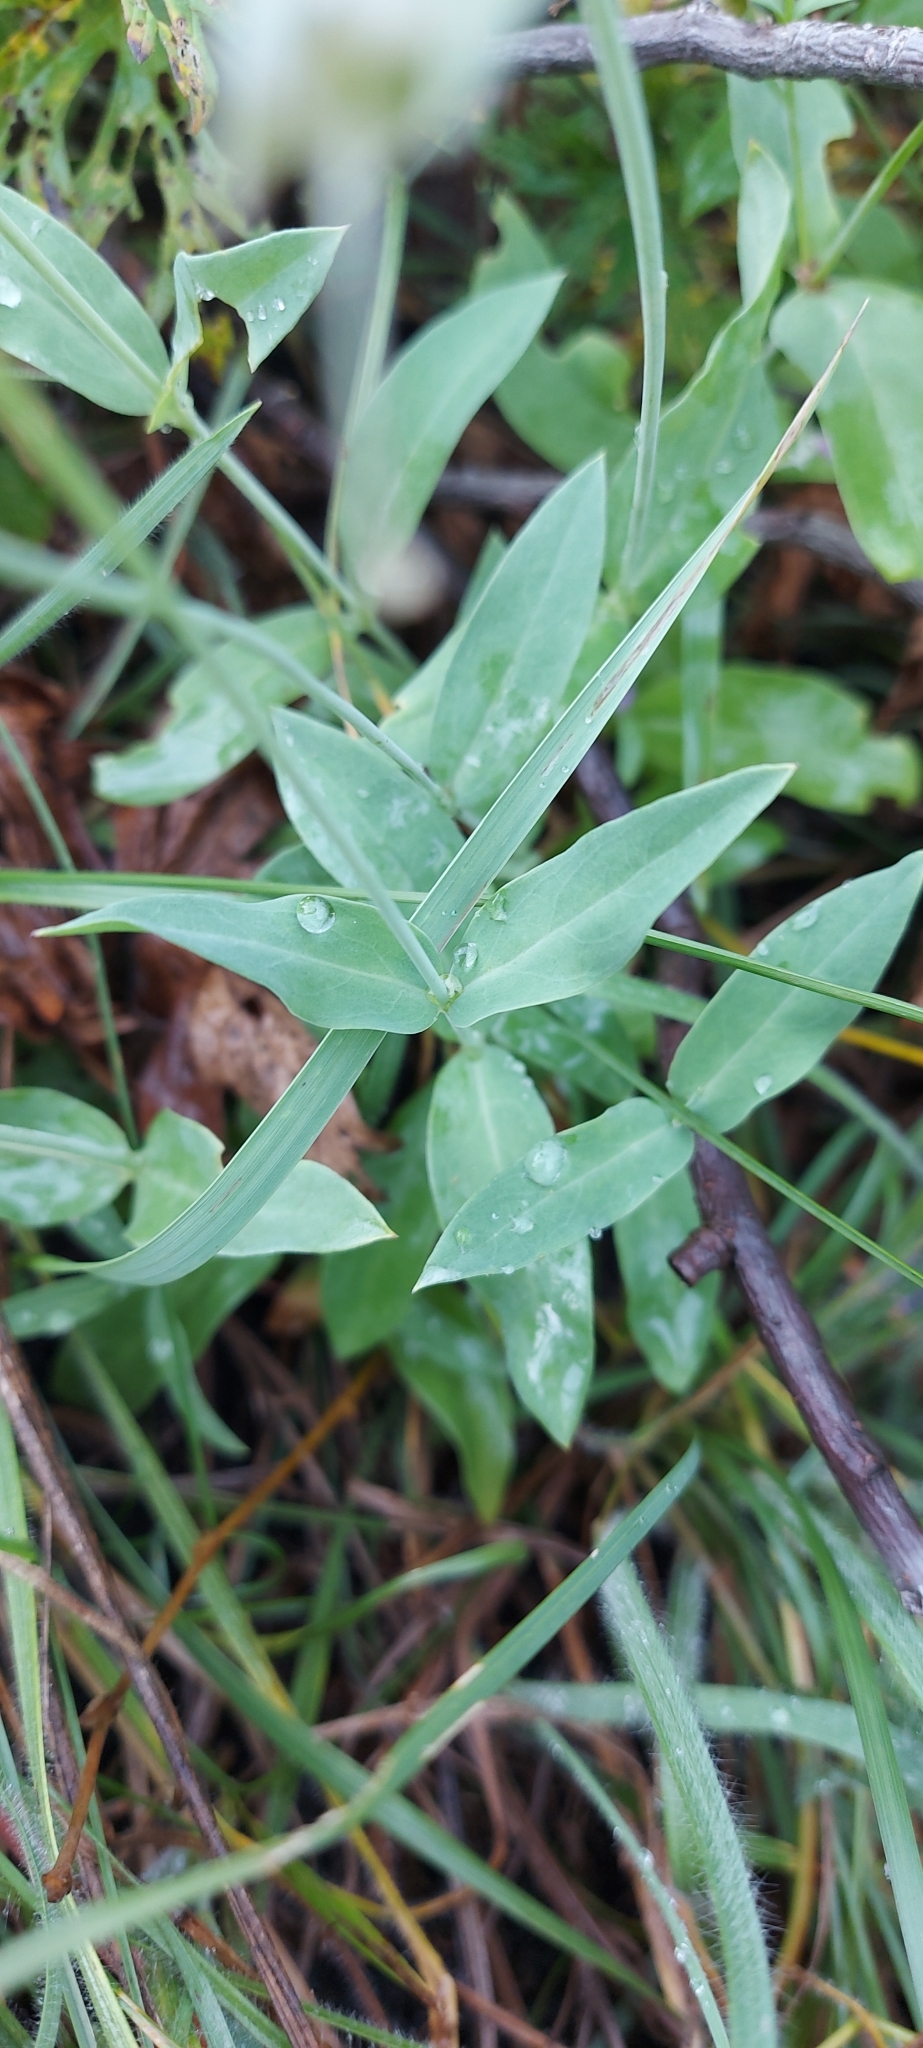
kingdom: Plantae
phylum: Tracheophyta
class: Magnoliopsida
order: Caryophyllales
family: Caryophyllaceae
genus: Silene
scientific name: Silene vulgaris
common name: Bladder campion
